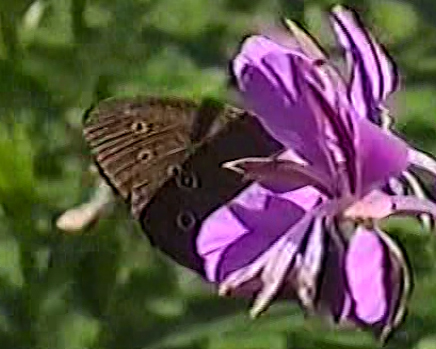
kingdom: Animalia
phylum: Arthropoda
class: Insecta
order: Lepidoptera
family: Nymphalidae
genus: Aphantopus
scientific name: Aphantopus hyperantus
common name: Ringlet
